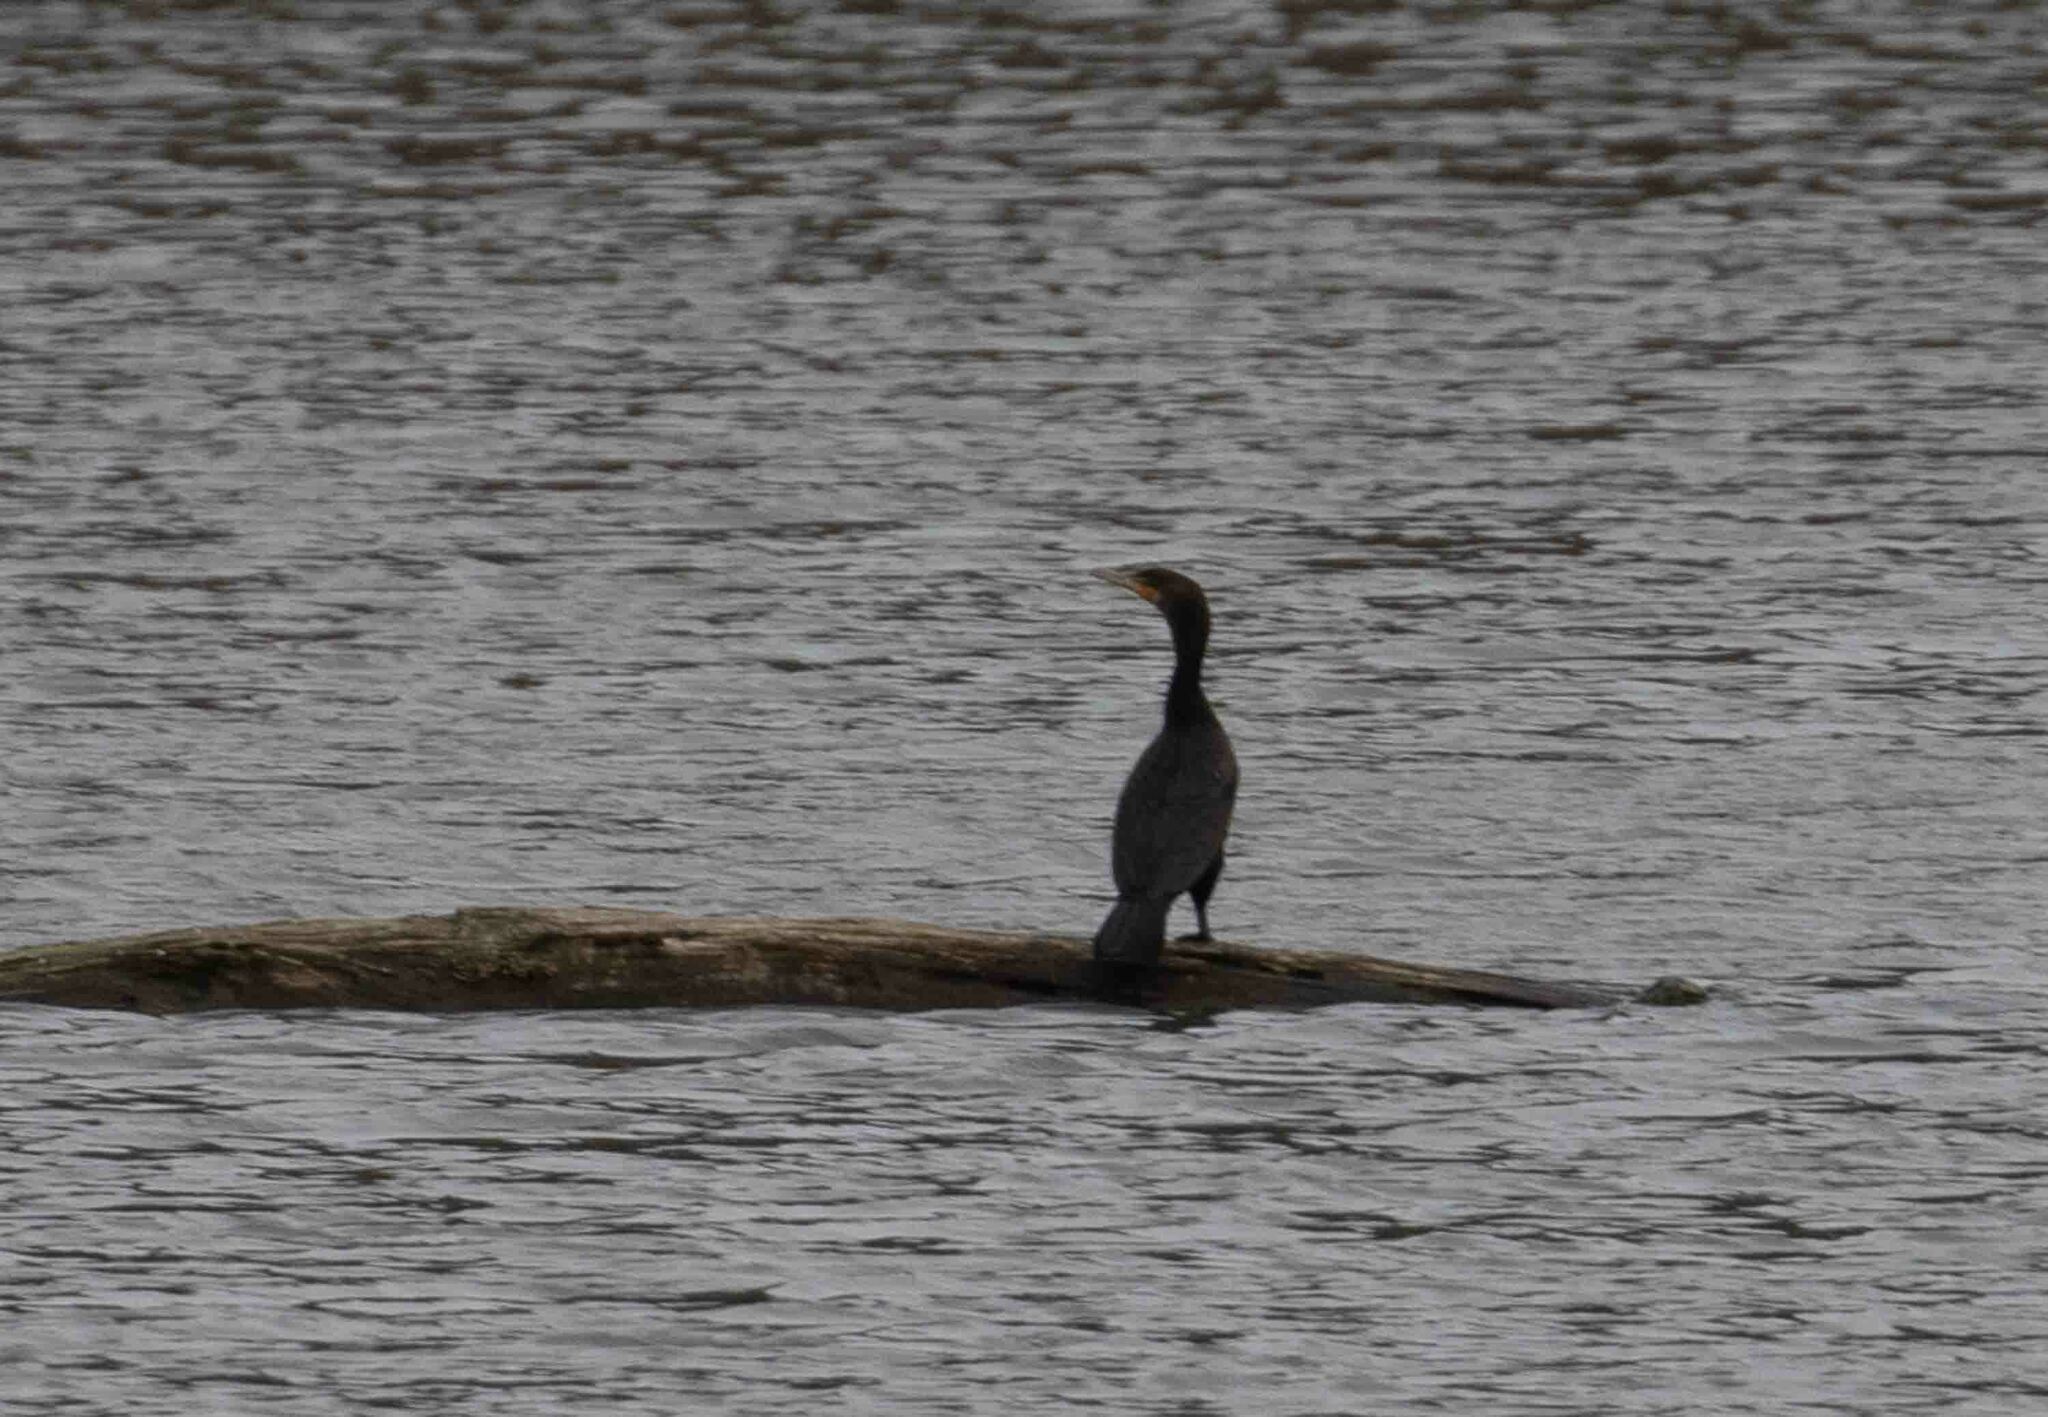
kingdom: Animalia
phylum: Chordata
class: Aves
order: Suliformes
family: Phalacrocoracidae
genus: Phalacrocorax
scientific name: Phalacrocorax auritus
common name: Double-crested cormorant
